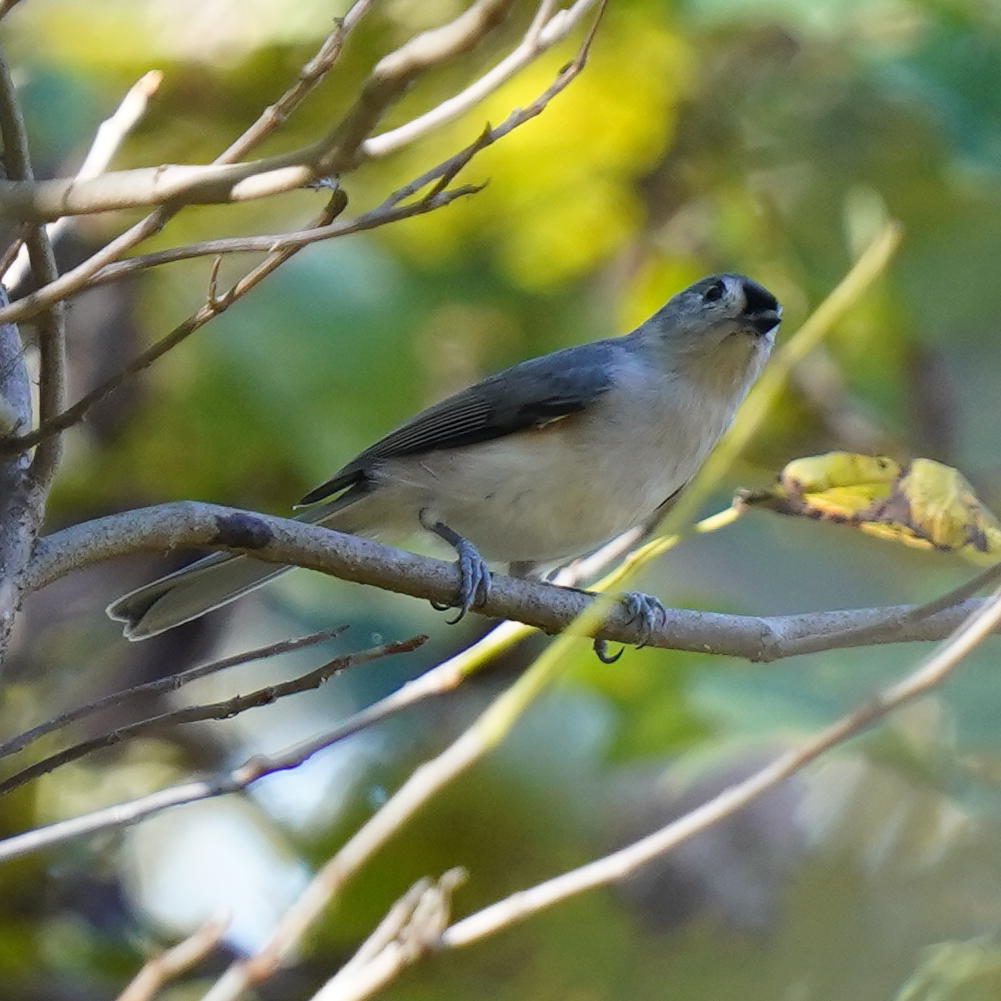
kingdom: Animalia
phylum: Chordata
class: Aves
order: Passeriformes
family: Paridae
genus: Baeolophus
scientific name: Baeolophus bicolor
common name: Tufted titmouse
